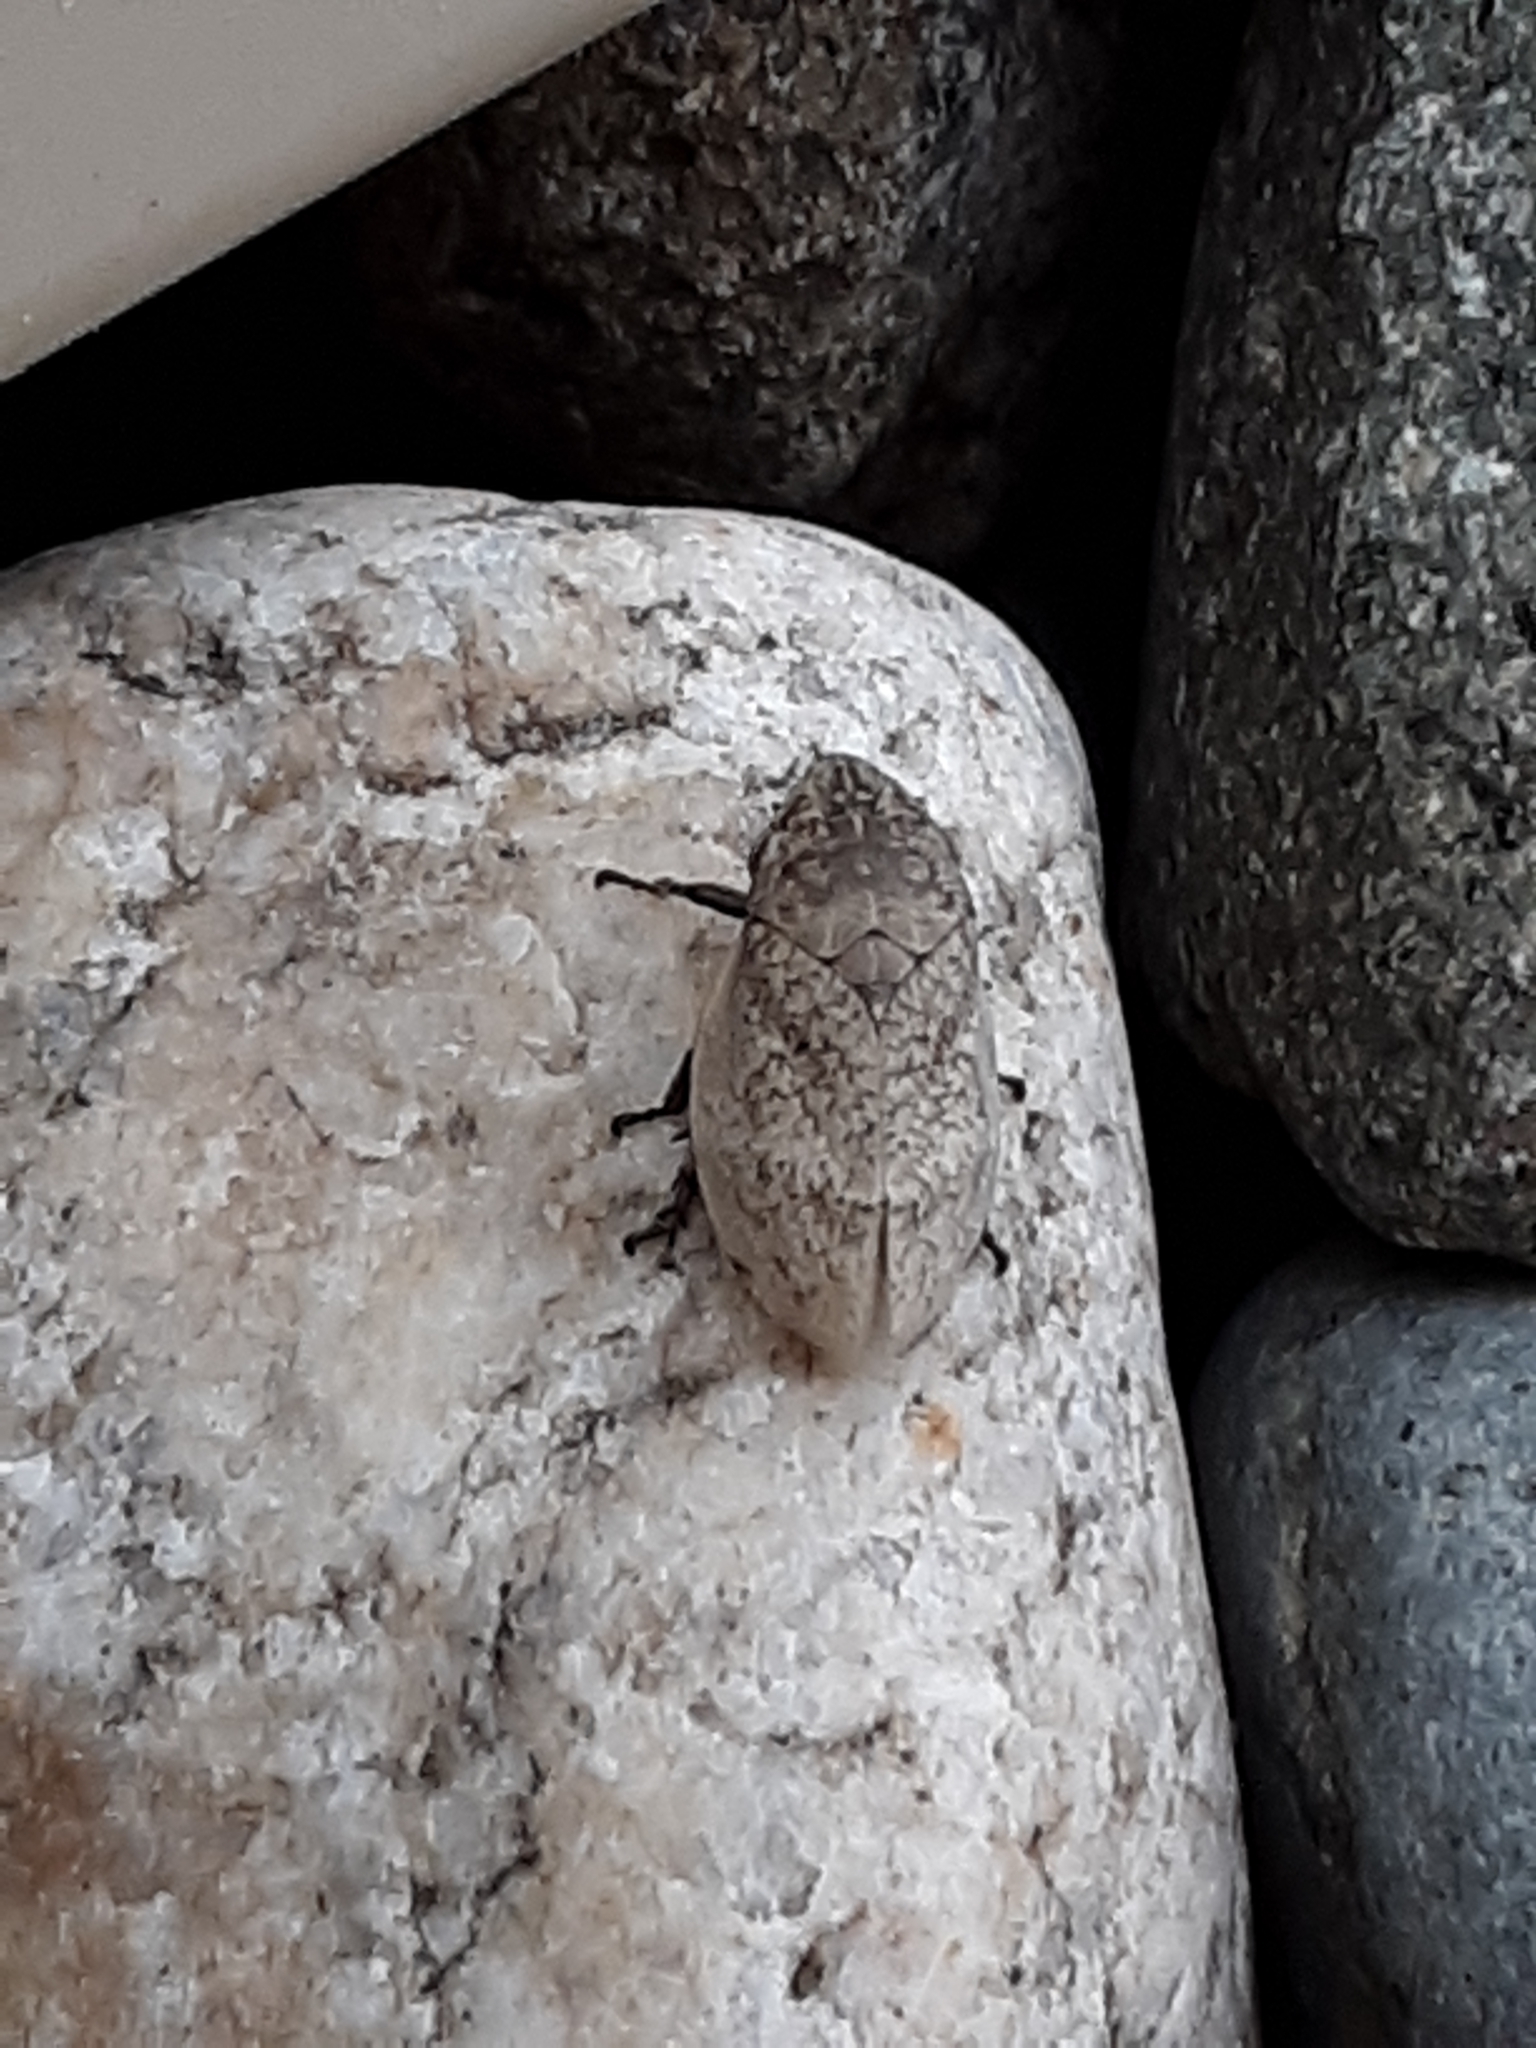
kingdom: Animalia
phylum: Arthropoda
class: Insecta
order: Hemiptera
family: Aphrophoridae
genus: Lepyronia
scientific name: Lepyronia gibbosa
